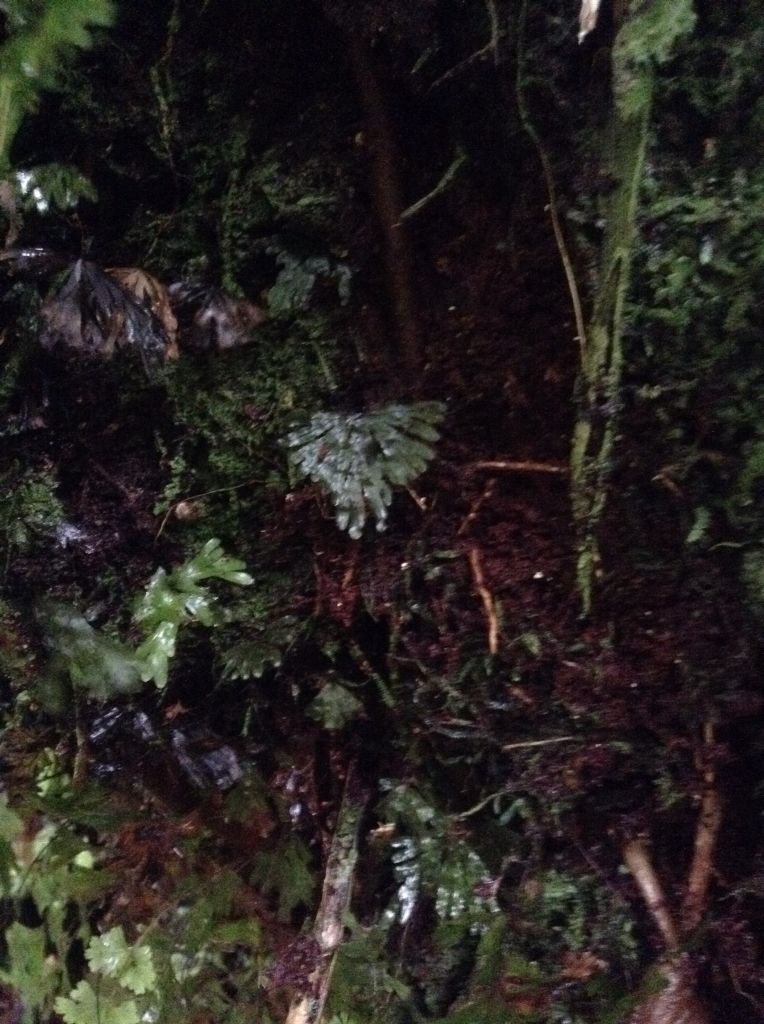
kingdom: Plantae
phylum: Tracheophyta
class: Polypodiopsida
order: Hymenophyllales
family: Hymenophyllaceae
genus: Hymenophyllum
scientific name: Hymenophyllum lyallii
